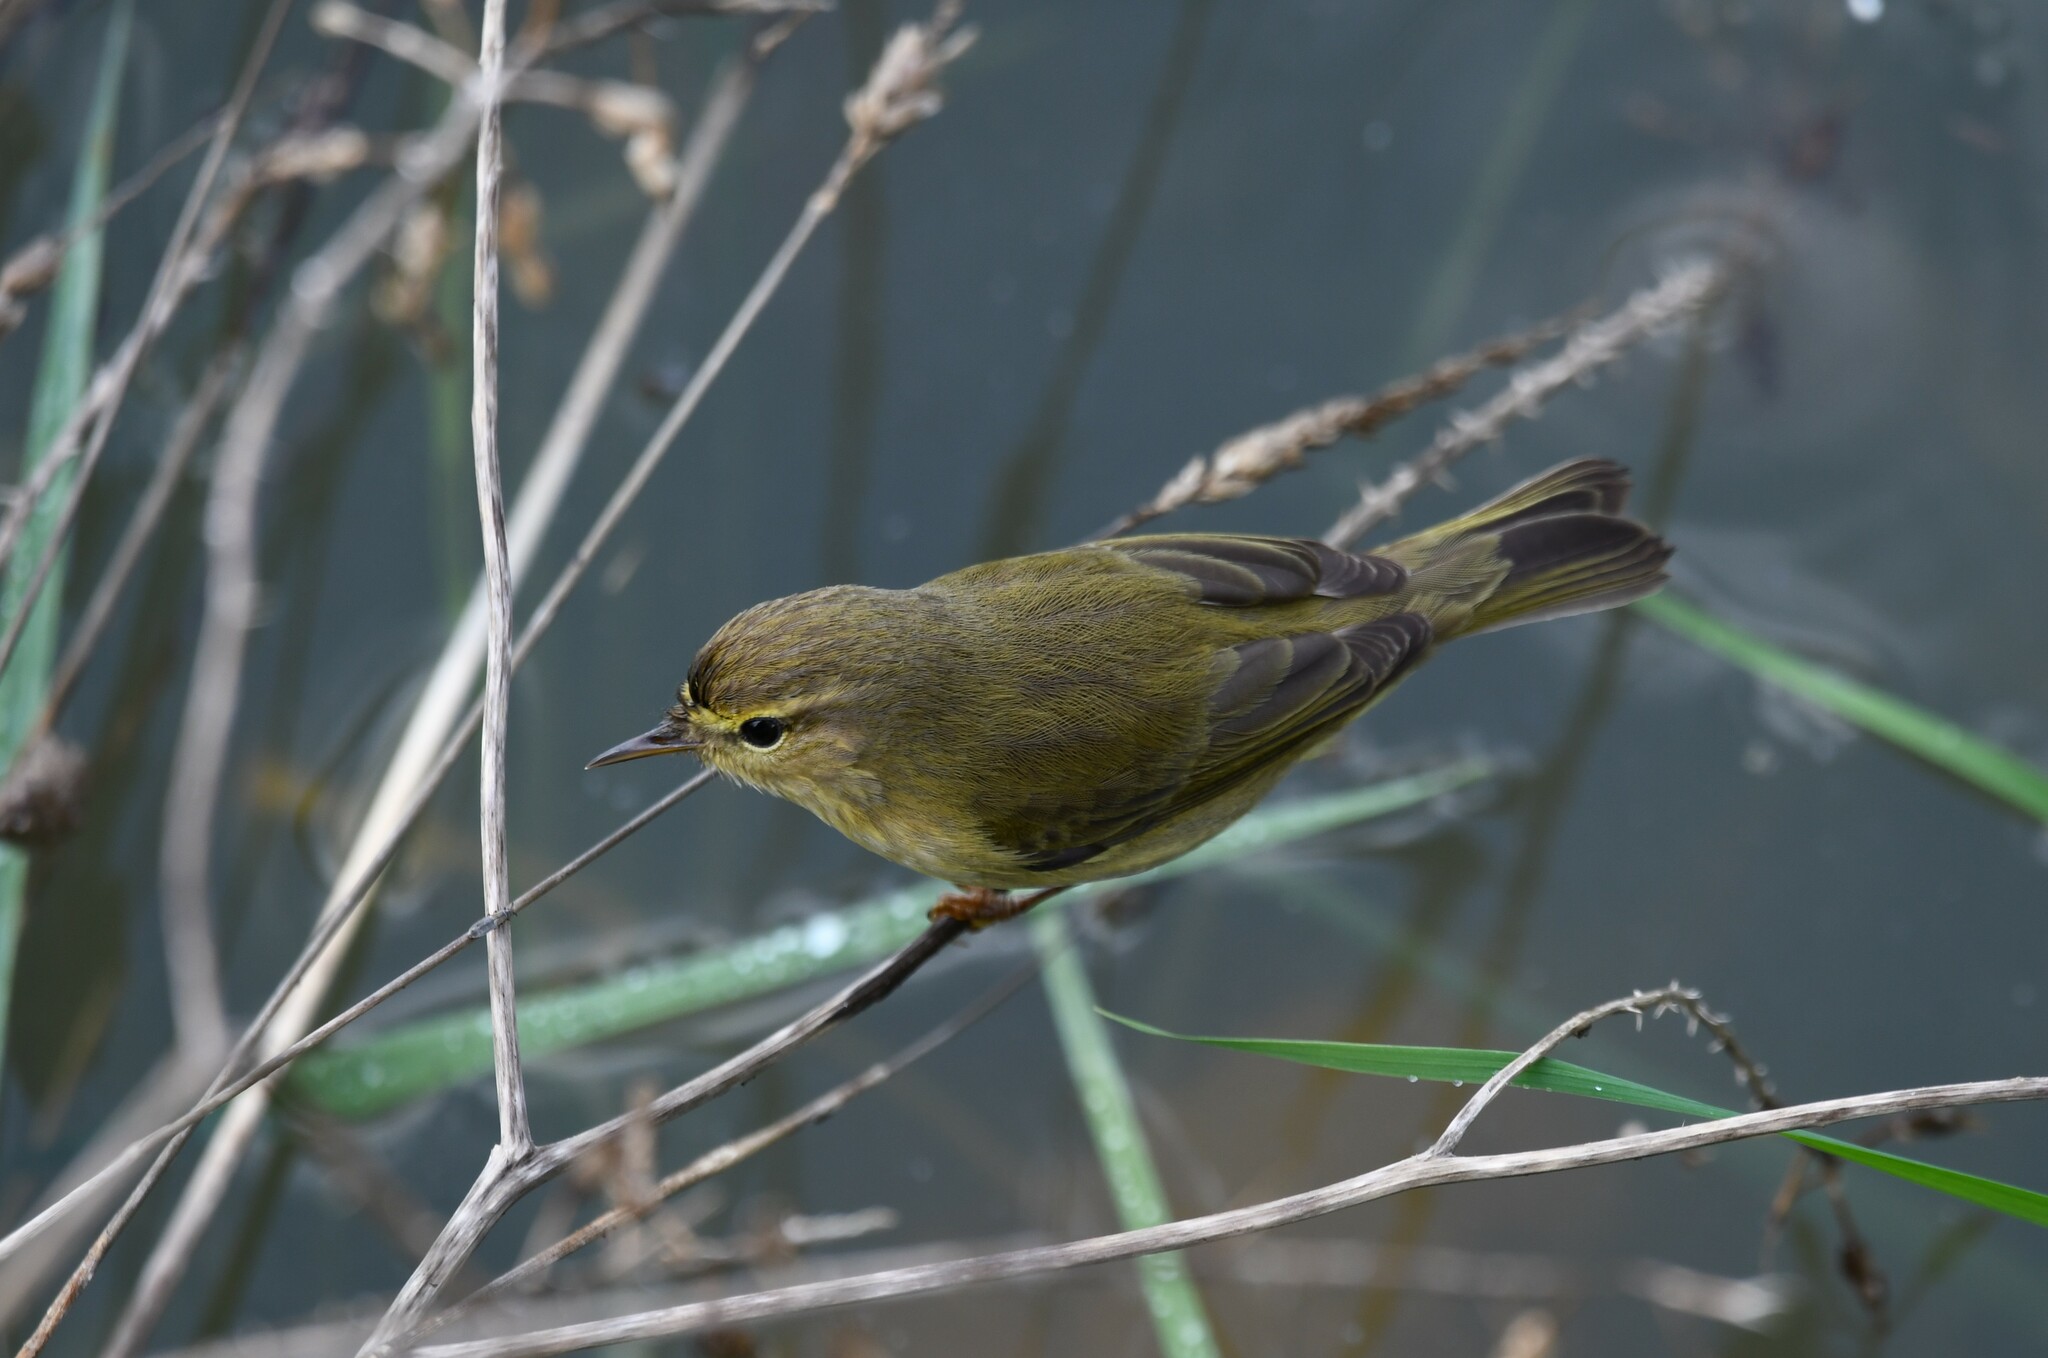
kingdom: Animalia
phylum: Chordata
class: Aves
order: Passeriformes
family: Phylloscopidae
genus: Phylloscopus
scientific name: Phylloscopus collybita
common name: Common chiffchaff
